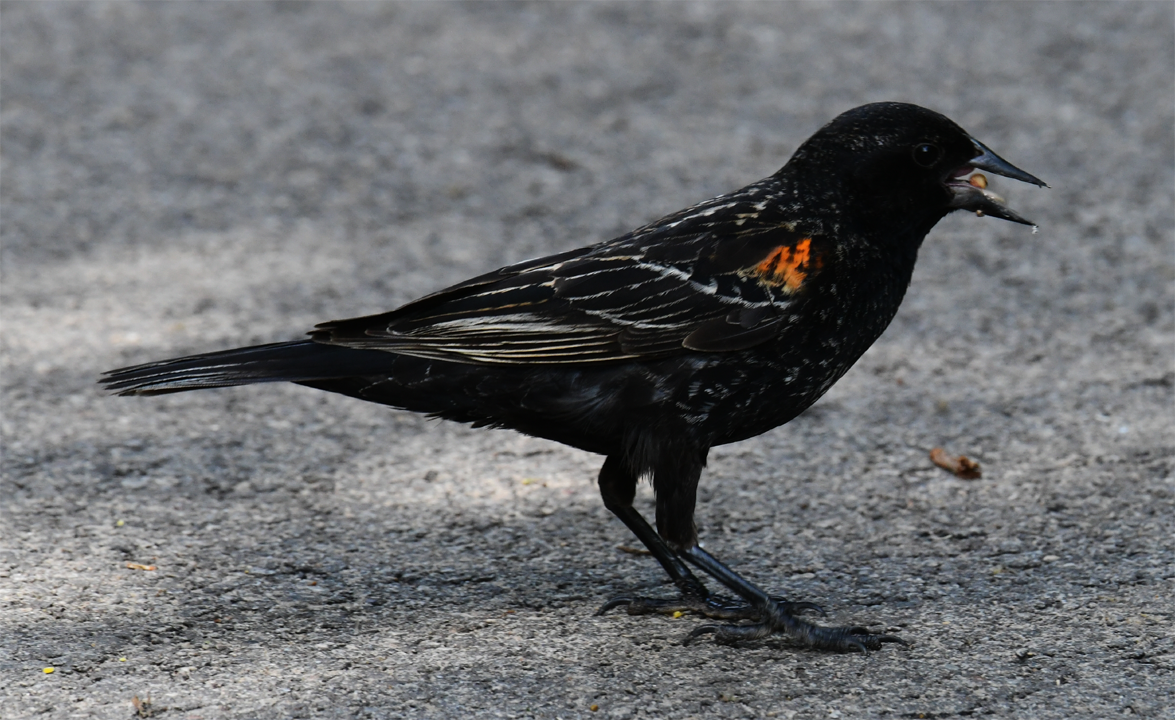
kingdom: Animalia
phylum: Chordata
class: Aves
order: Passeriformes
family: Icteridae
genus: Agelaius
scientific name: Agelaius phoeniceus
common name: Red-winged blackbird
